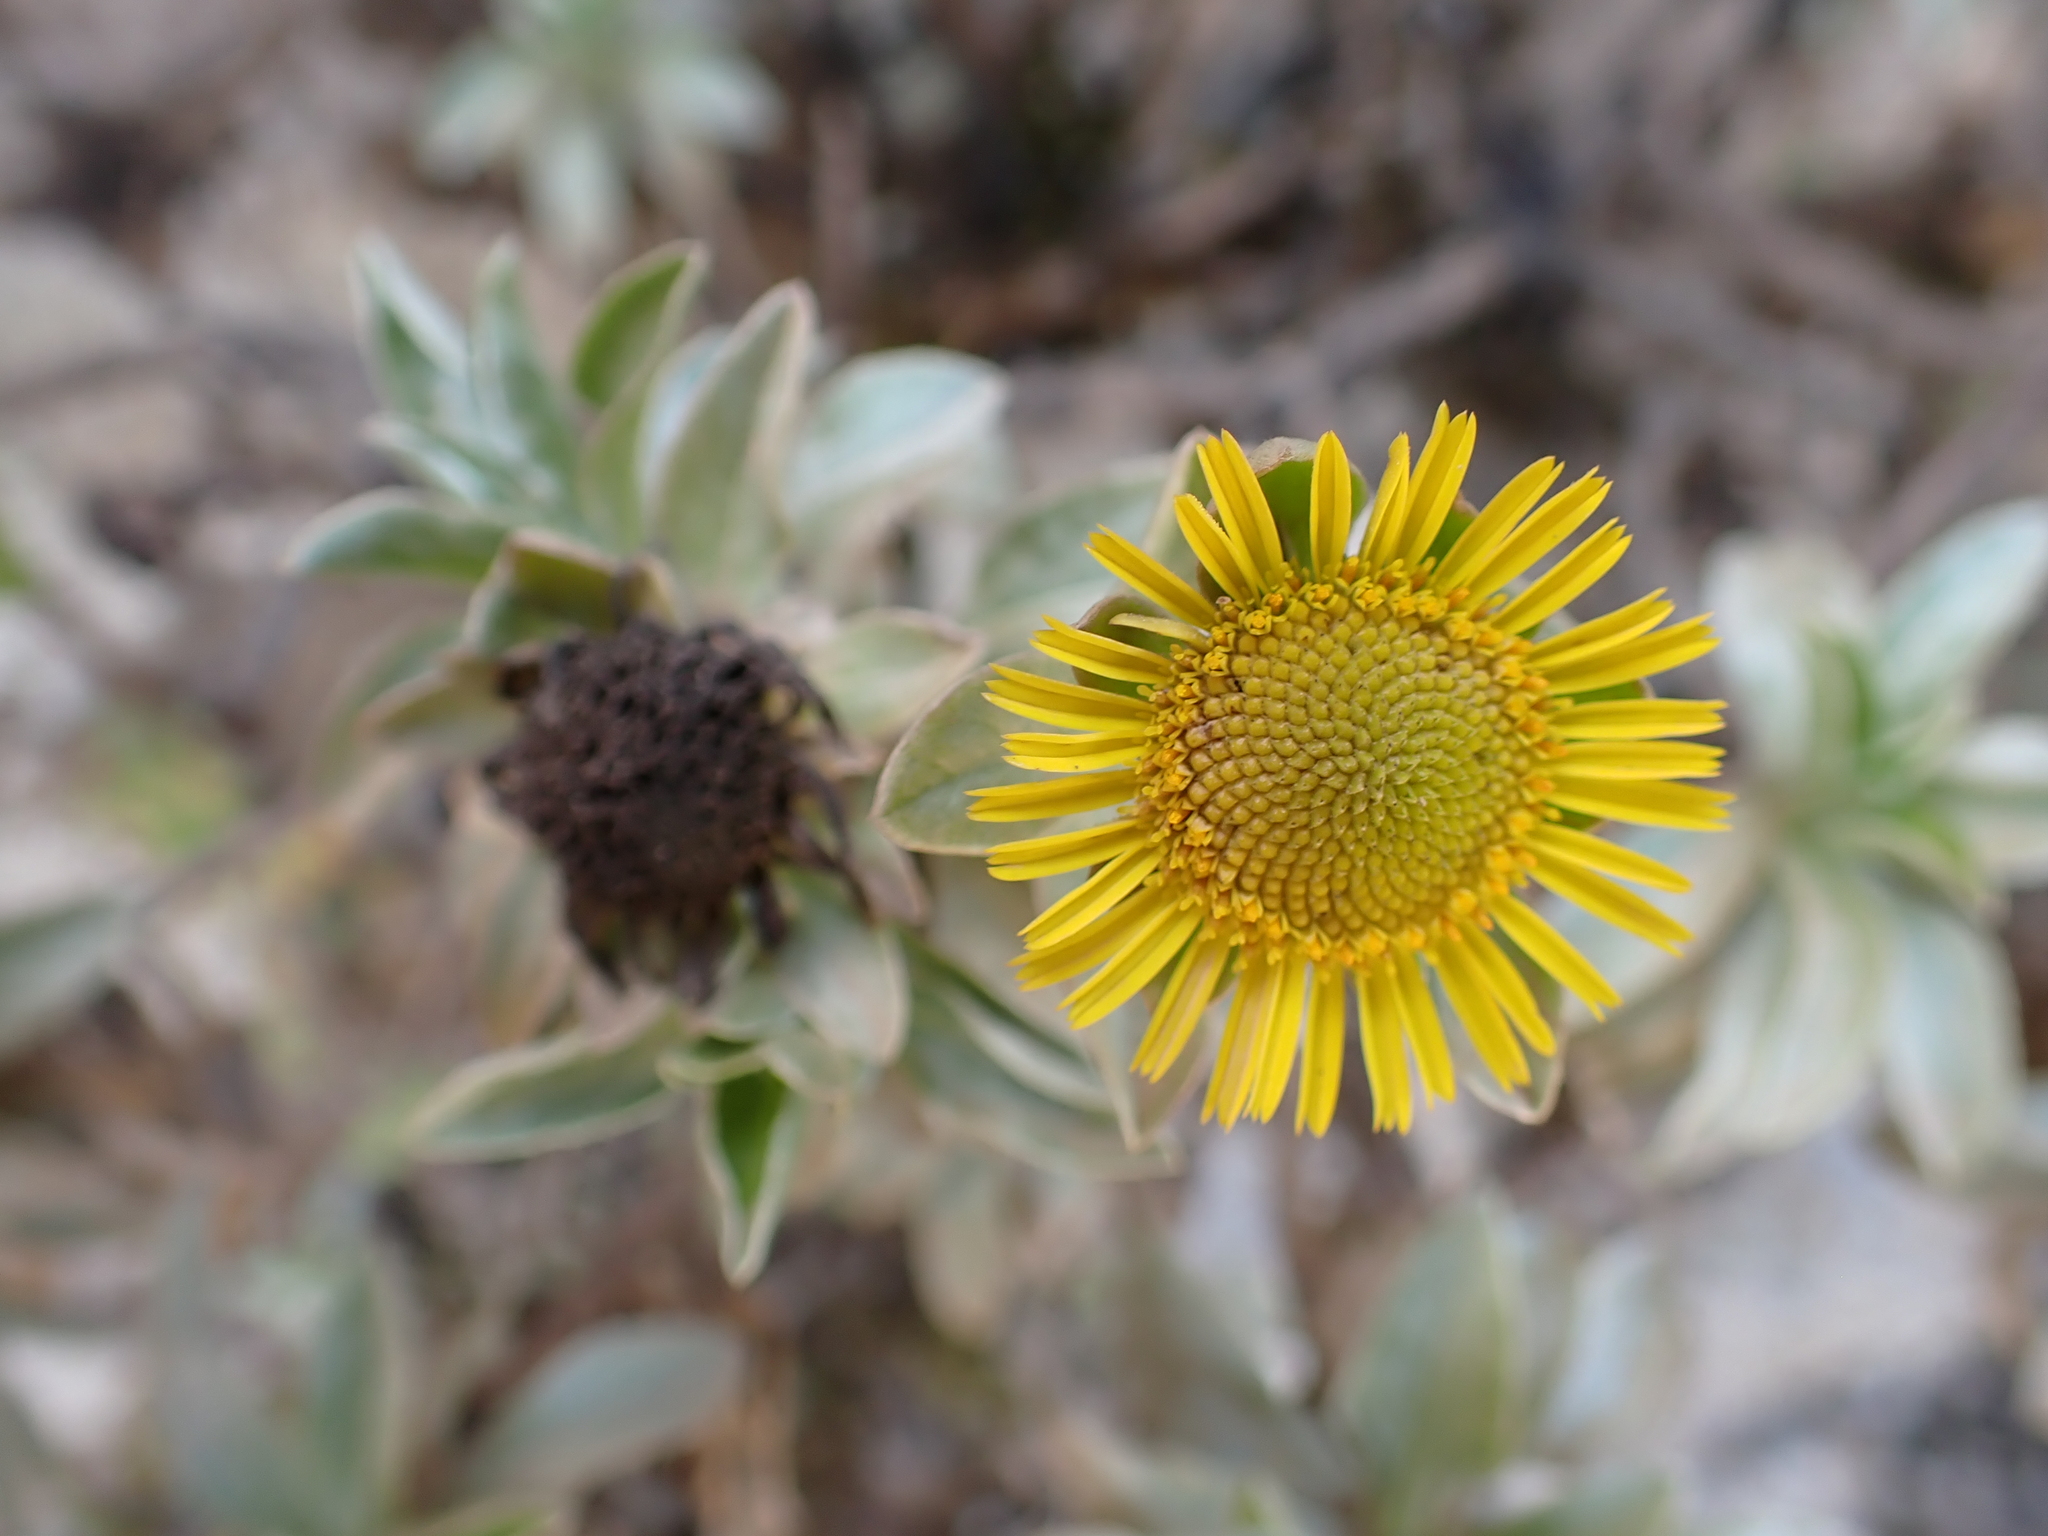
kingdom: Plantae
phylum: Tracheophyta
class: Magnoliopsida
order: Asterales
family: Asteraceae
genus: Asteriscus
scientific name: Asteriscus daltonii
